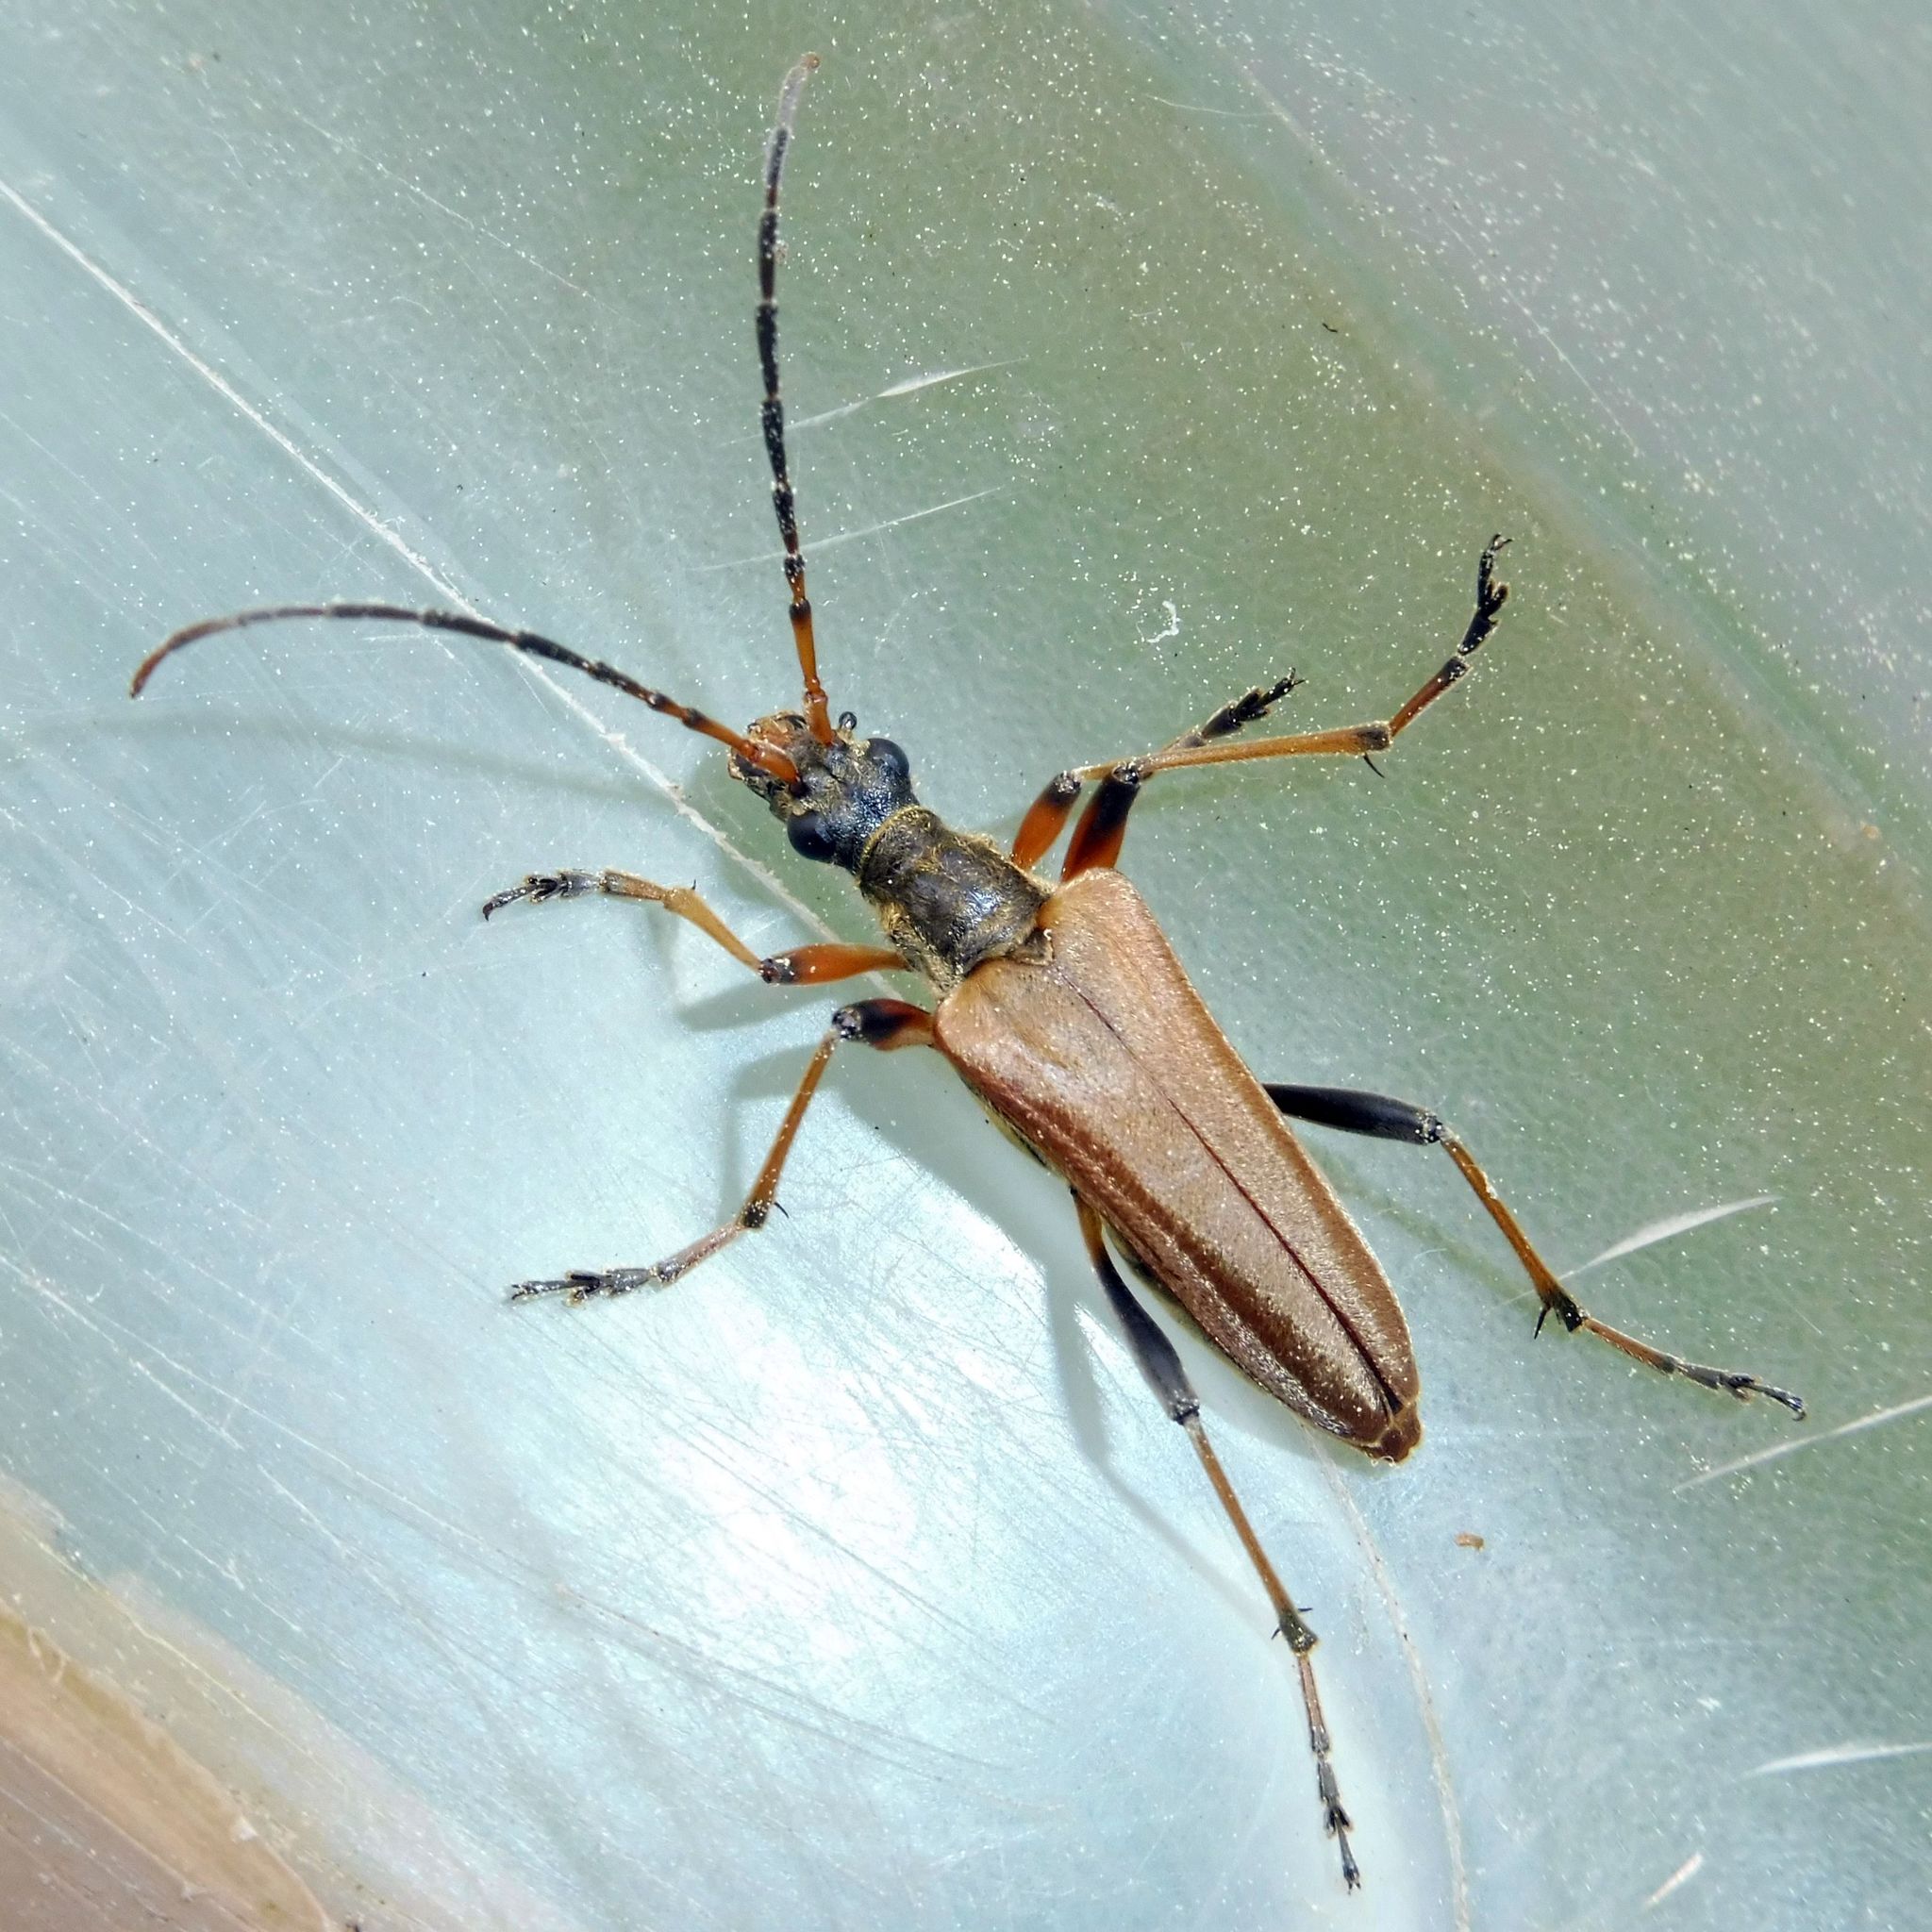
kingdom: Animalia
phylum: Arthropoda
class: Insecta
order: Coleoptera
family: Cerambycidae
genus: Stenocorus
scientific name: Stenocorus meridianus
